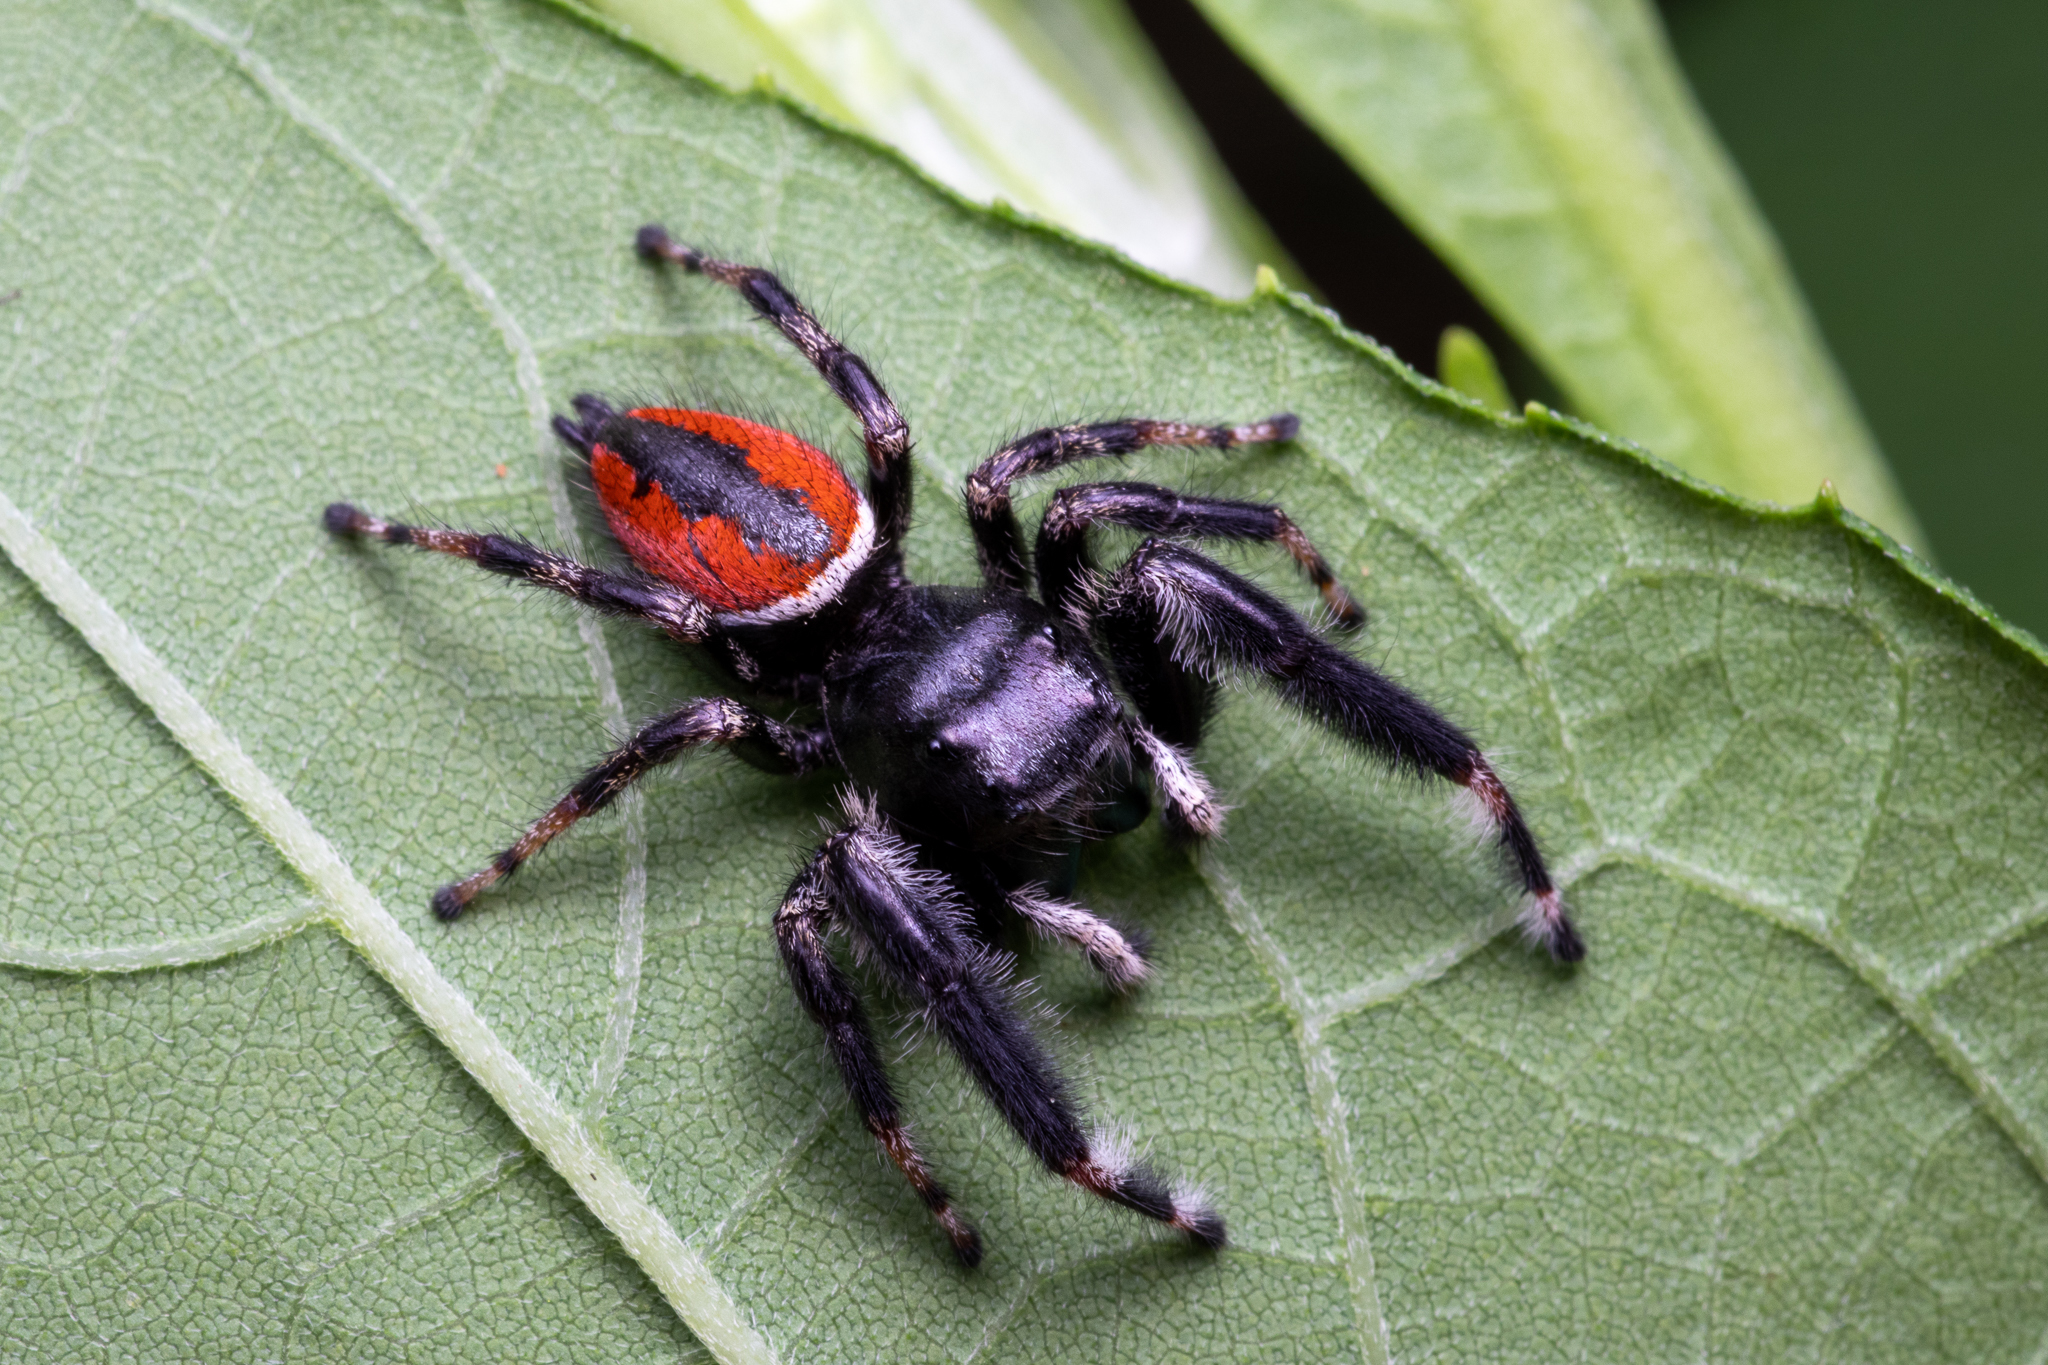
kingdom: Animalia
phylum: Arthropoda
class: Arachnida
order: Araneae
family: Salticidae
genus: Phidippus
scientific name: Phidippus clarus
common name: Brilliant jumping spider
